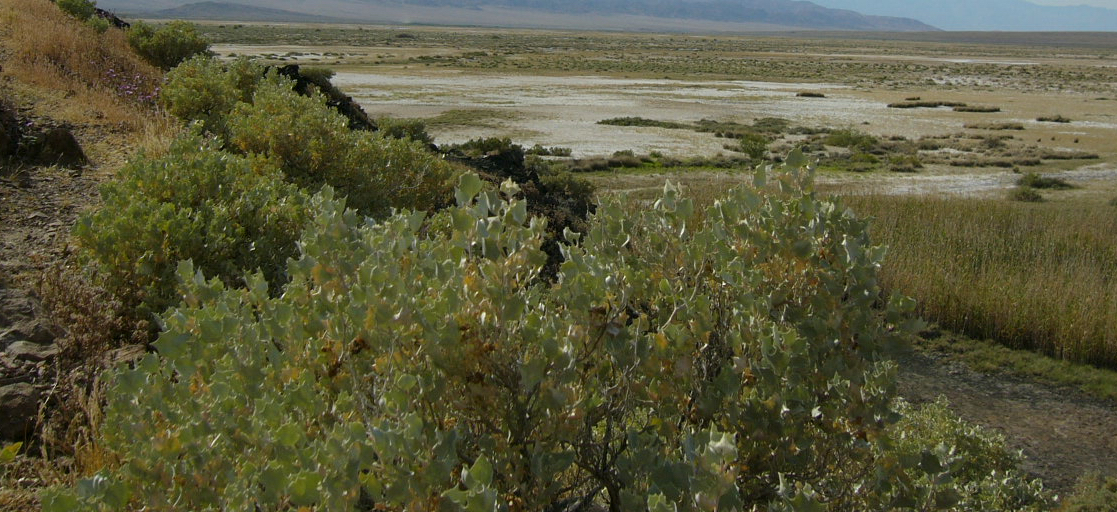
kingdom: Plantae
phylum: Tracheophyta
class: Magnoliopsida
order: Caryophyllales
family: Amaranthaceae
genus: Atriplex
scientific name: Atriplex hymenelytra
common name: Desert-holly
